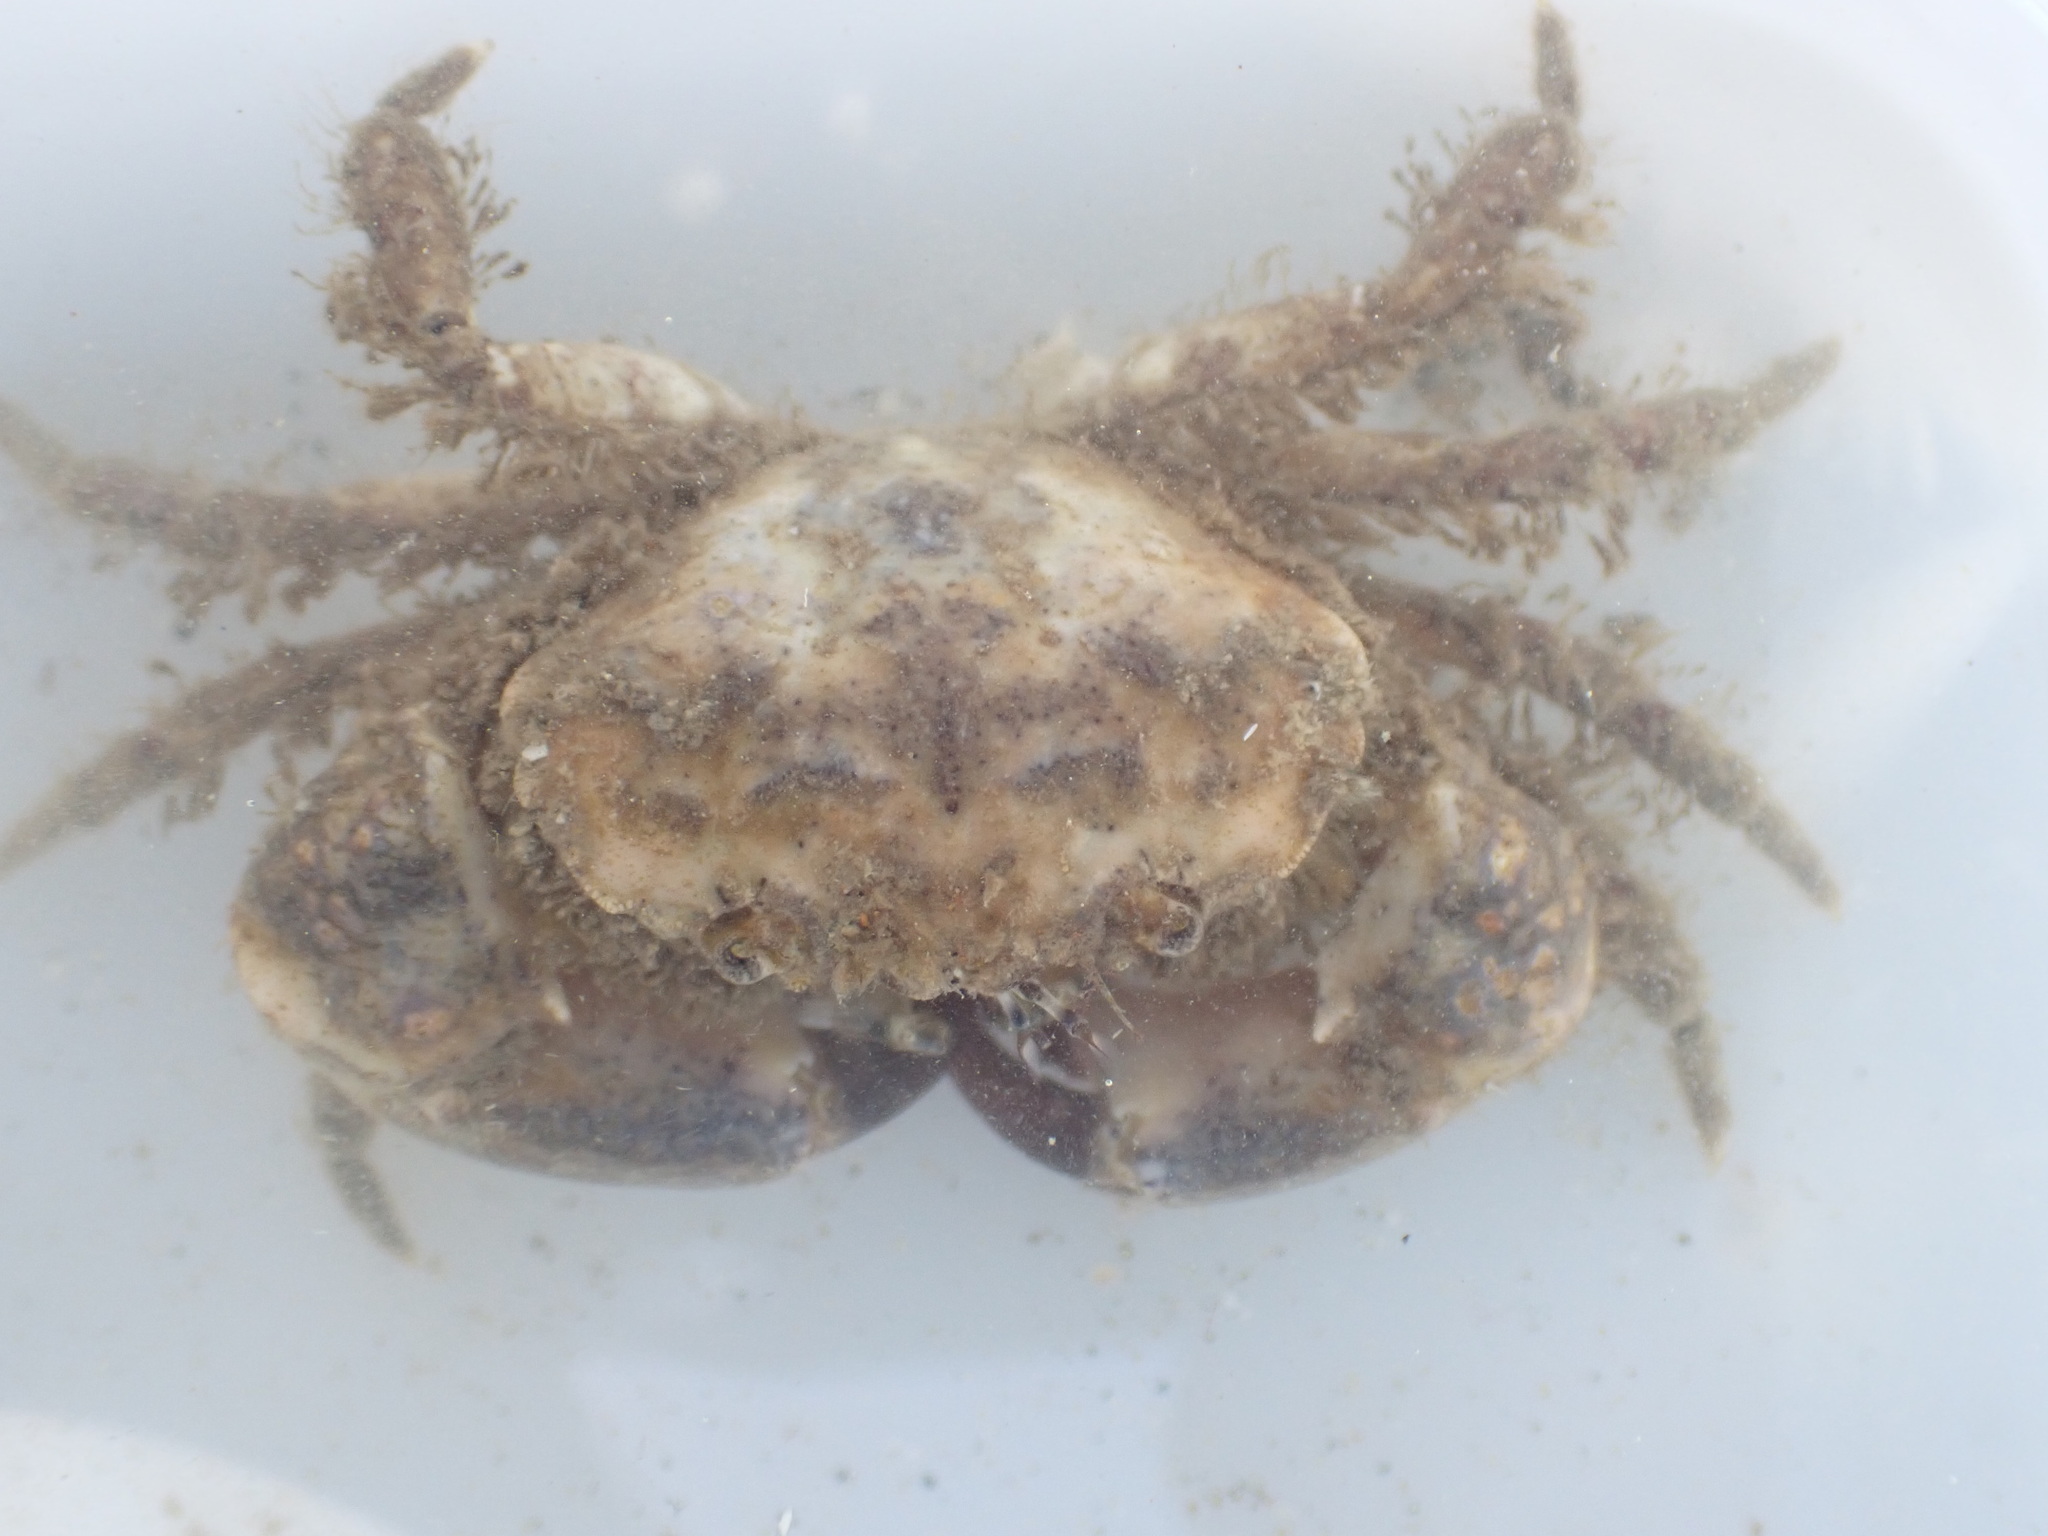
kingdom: Animalia
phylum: Arthropoda
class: Malacostraca
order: Decapoda
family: Pilumnidae
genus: Pilumnopeus
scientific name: Pilumnopeus serratifrons
